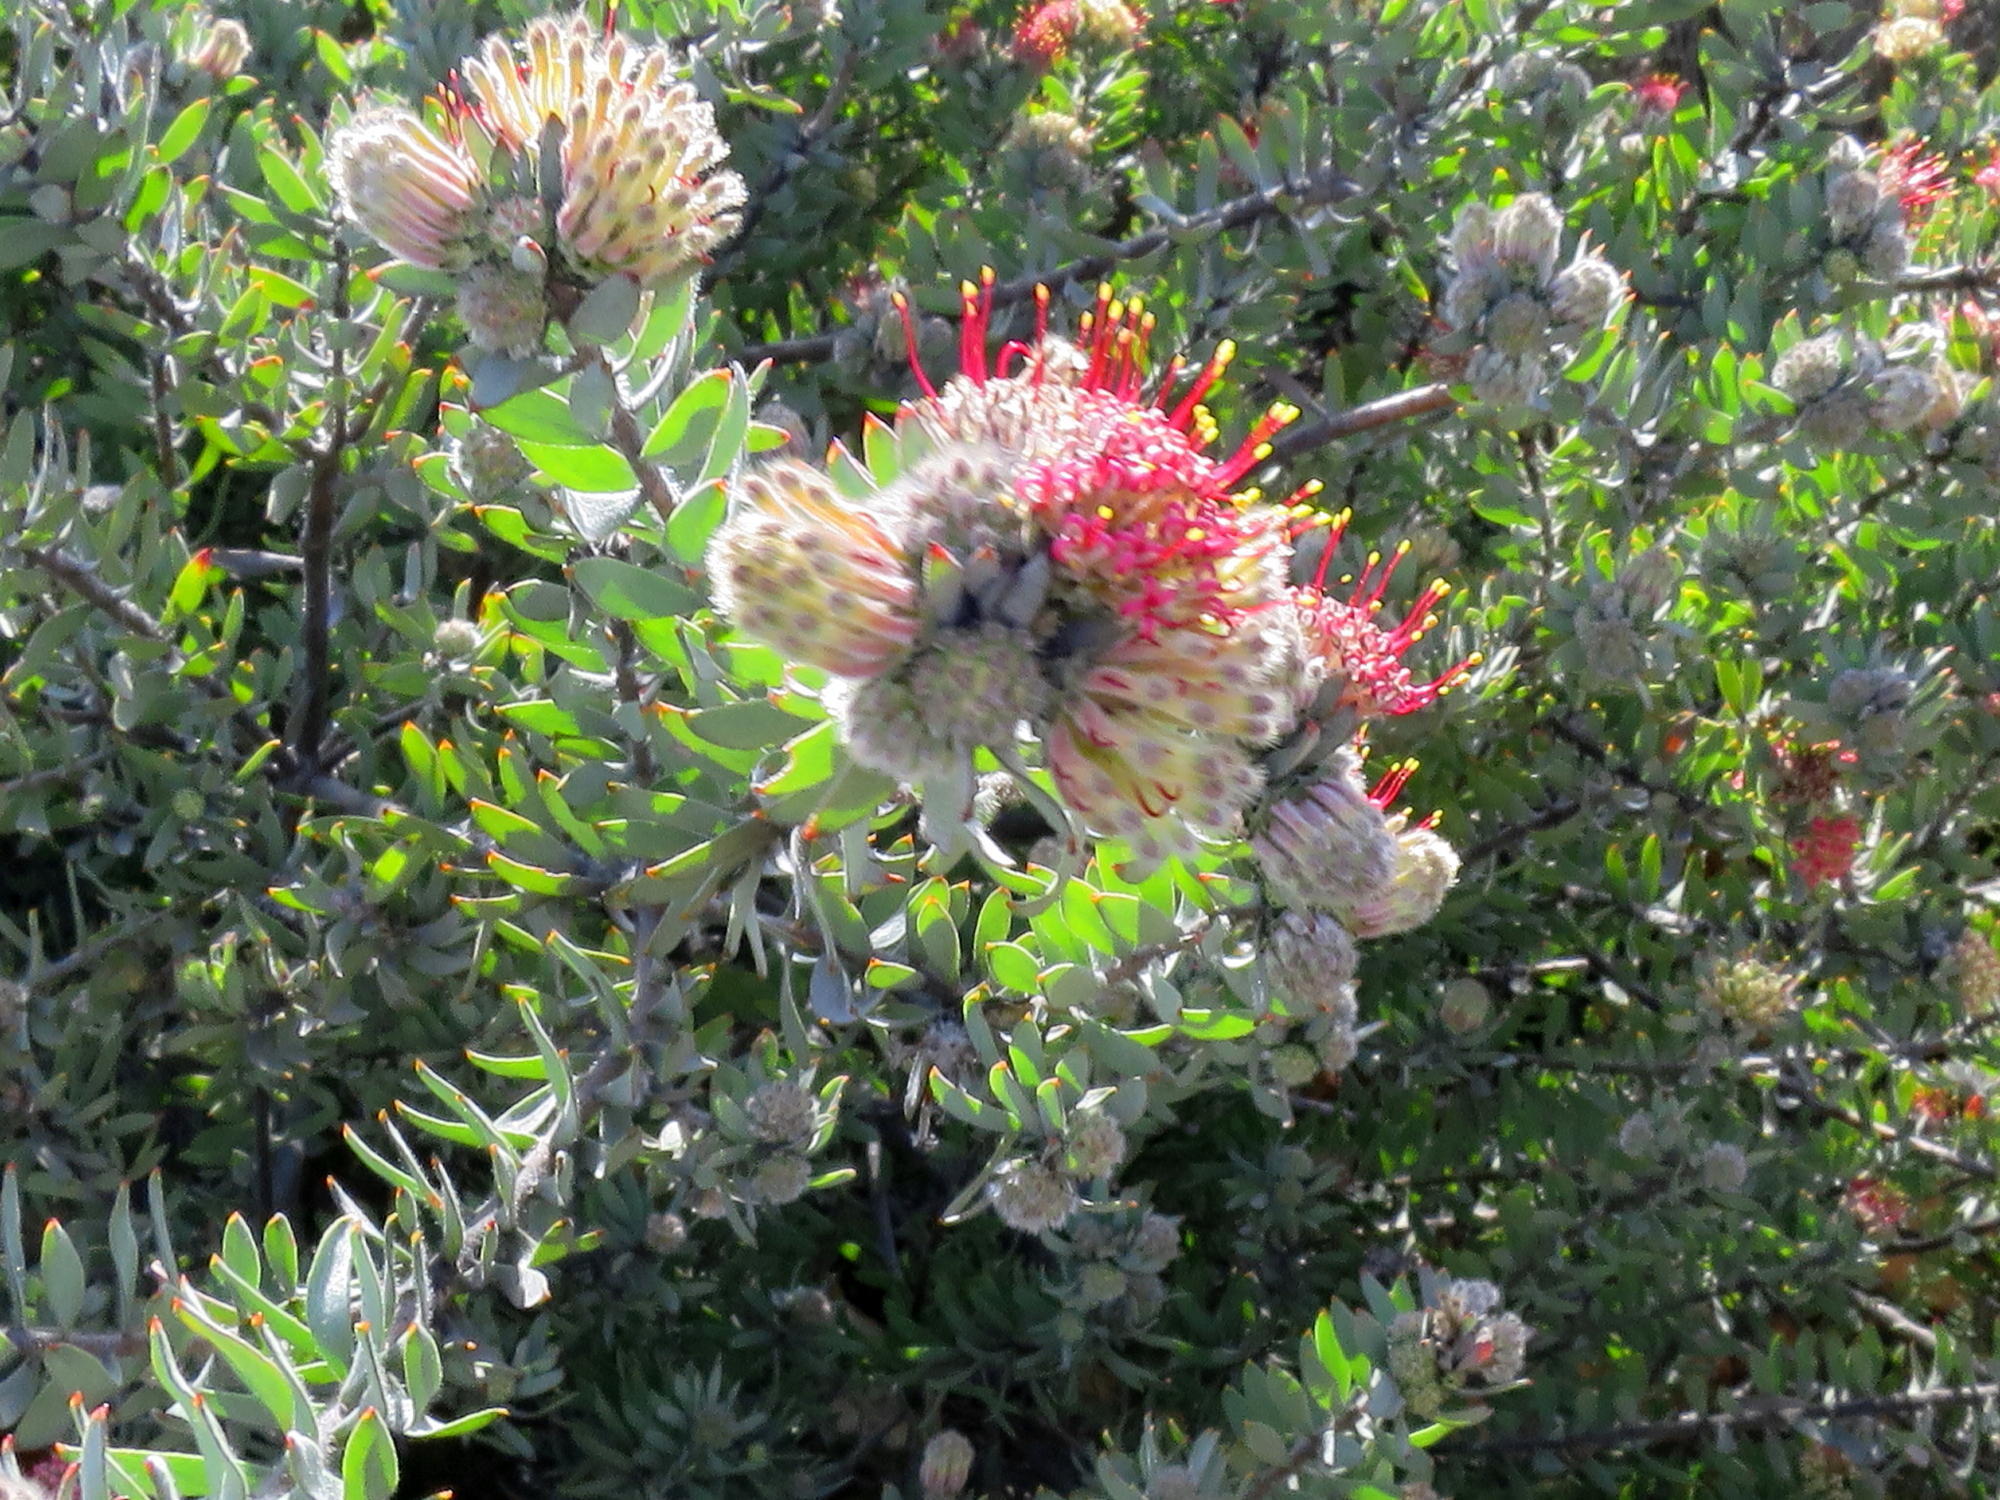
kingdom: Plantae
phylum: Tracheophyta
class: Magnoliopsida
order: Proteales
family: Proteaceae
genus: Leucospermum
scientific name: Leucospermum wittebergense
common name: Swartberg pincushion
